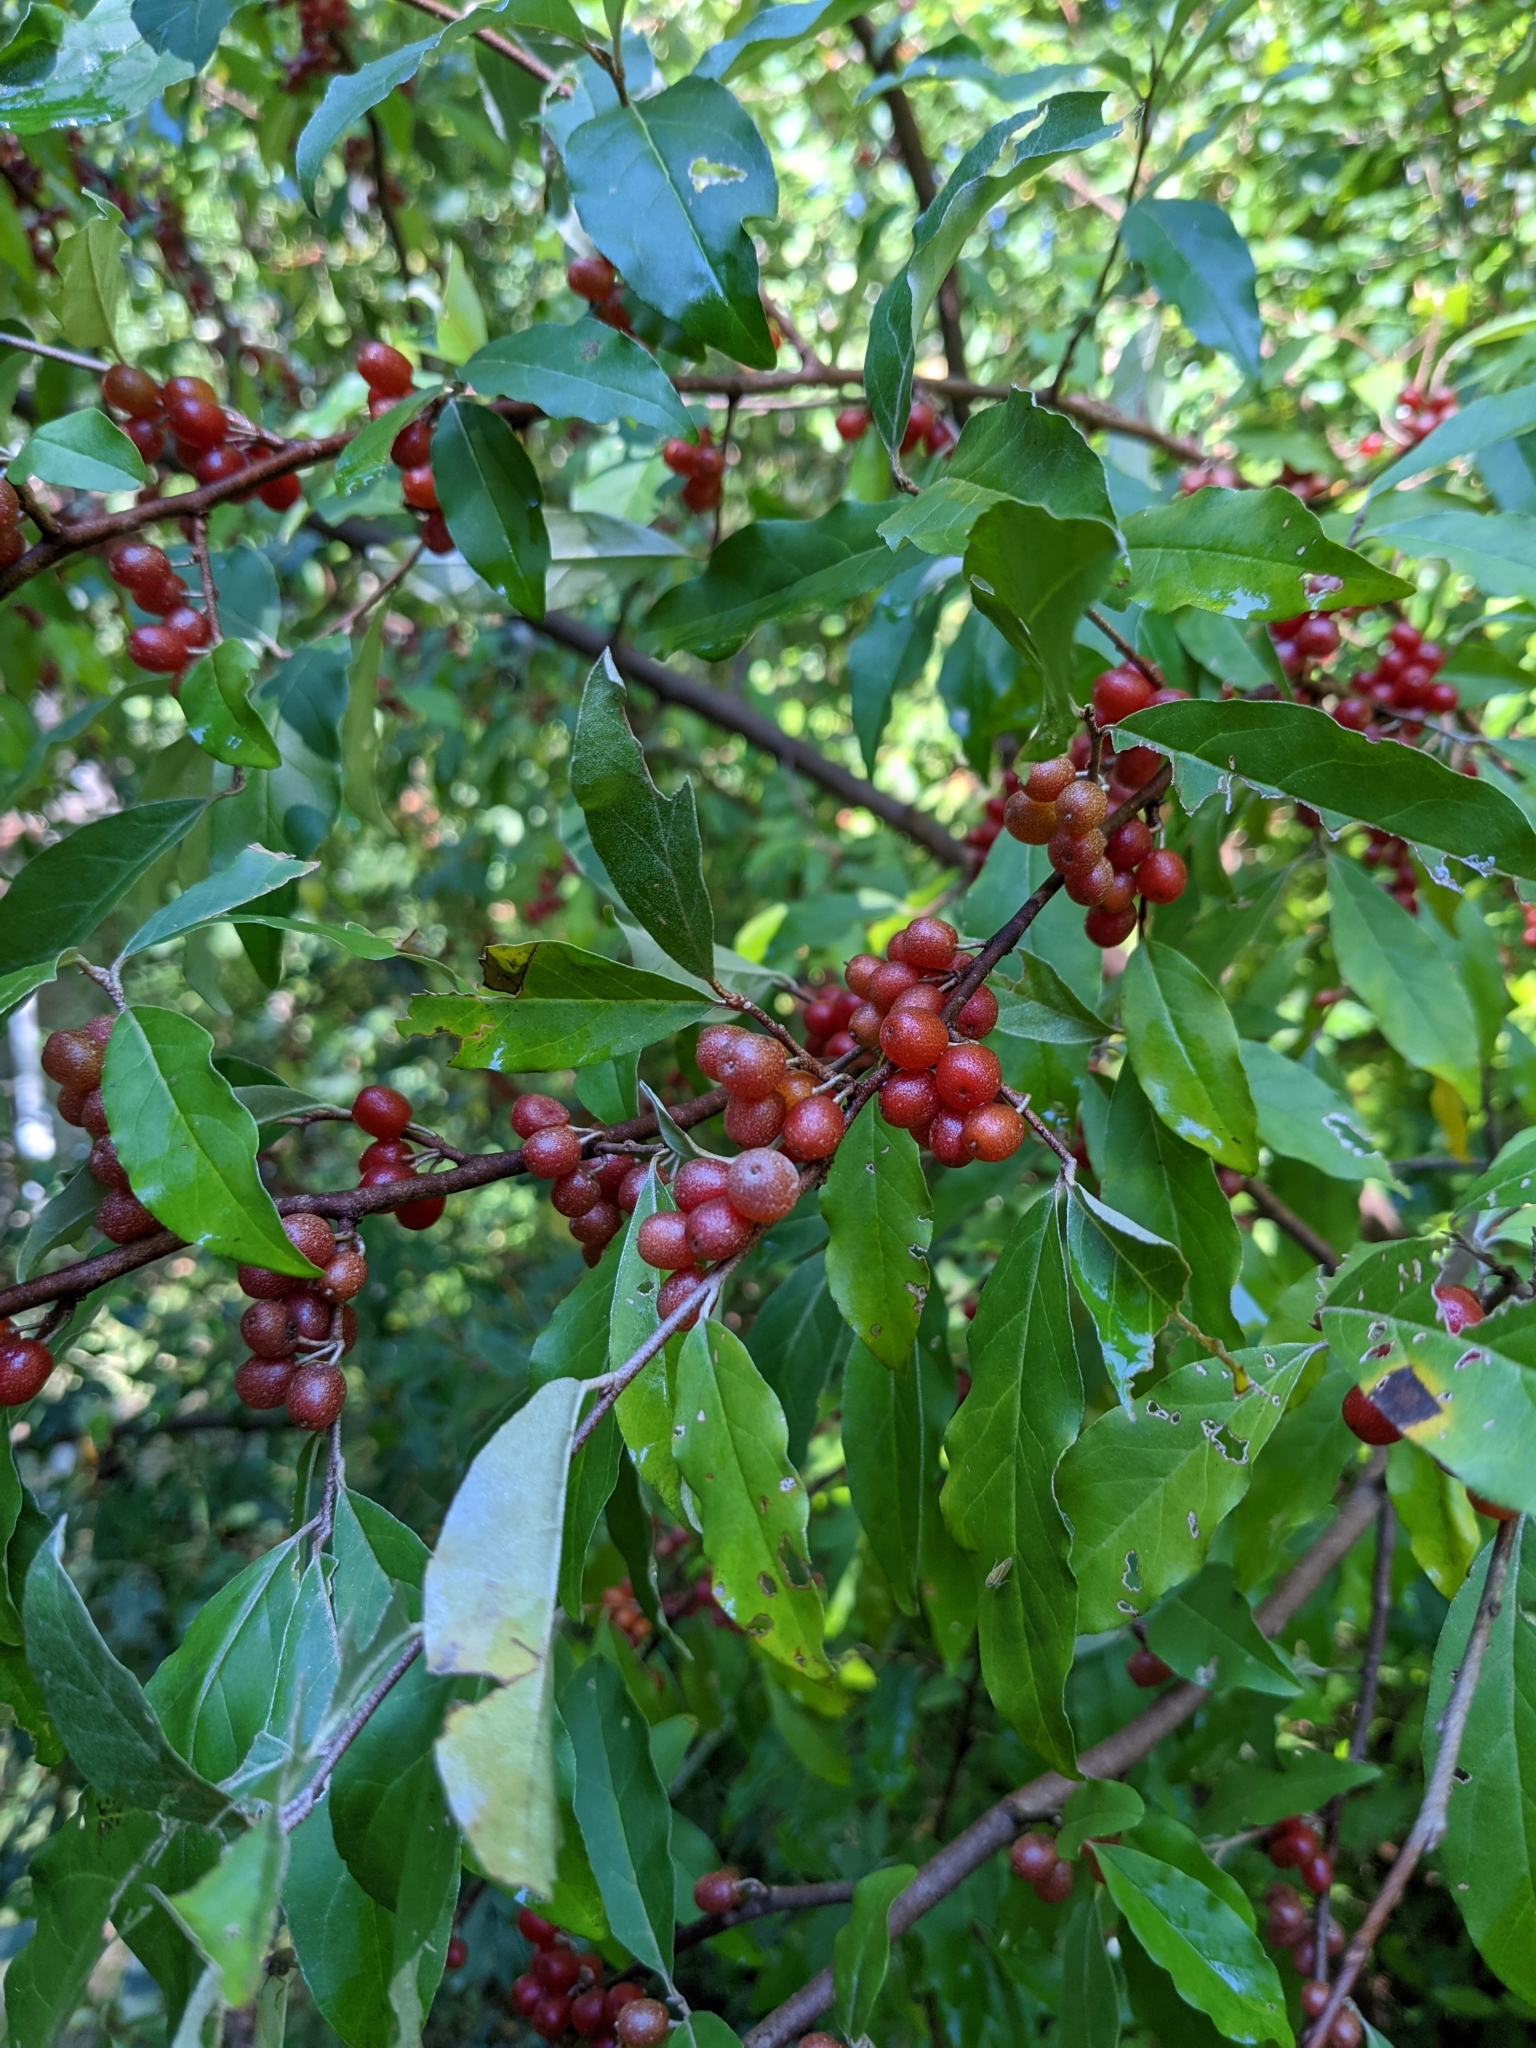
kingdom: Plantae
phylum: Tracheophyta
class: Magnoliopsida
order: Rosales
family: Elaeagnaceae
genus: Elaeagnus
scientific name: Elaeagnus umbellata
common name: Autumn olive
